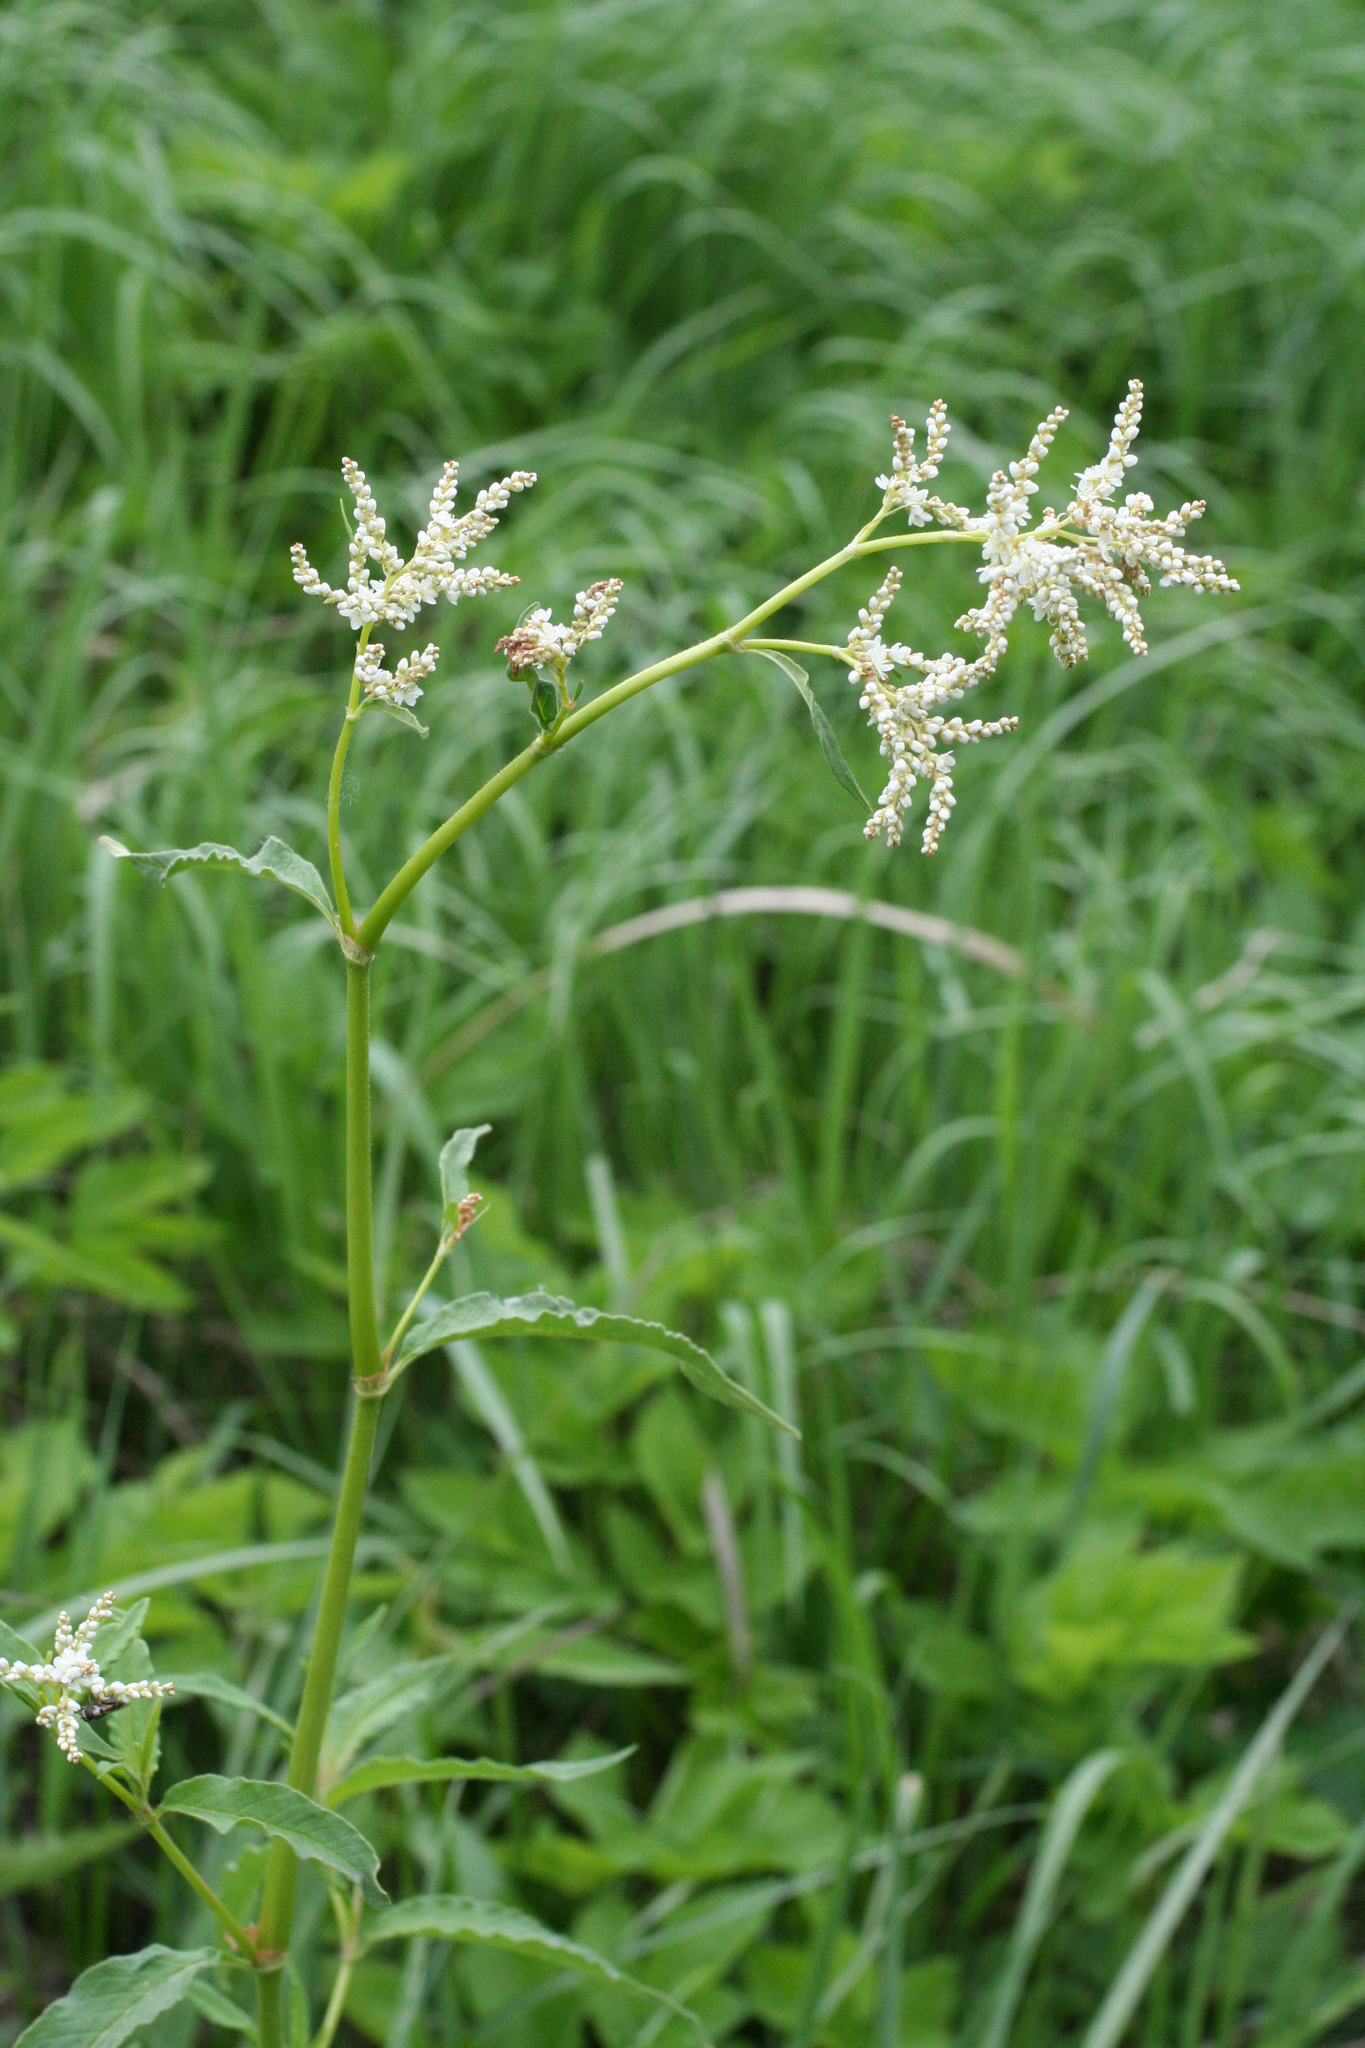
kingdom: Plantae
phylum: Tracheophyta
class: Magnoliopsida
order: Caryophyllales
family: Polygonaceae
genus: Koenigia
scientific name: Koenigia alpina
